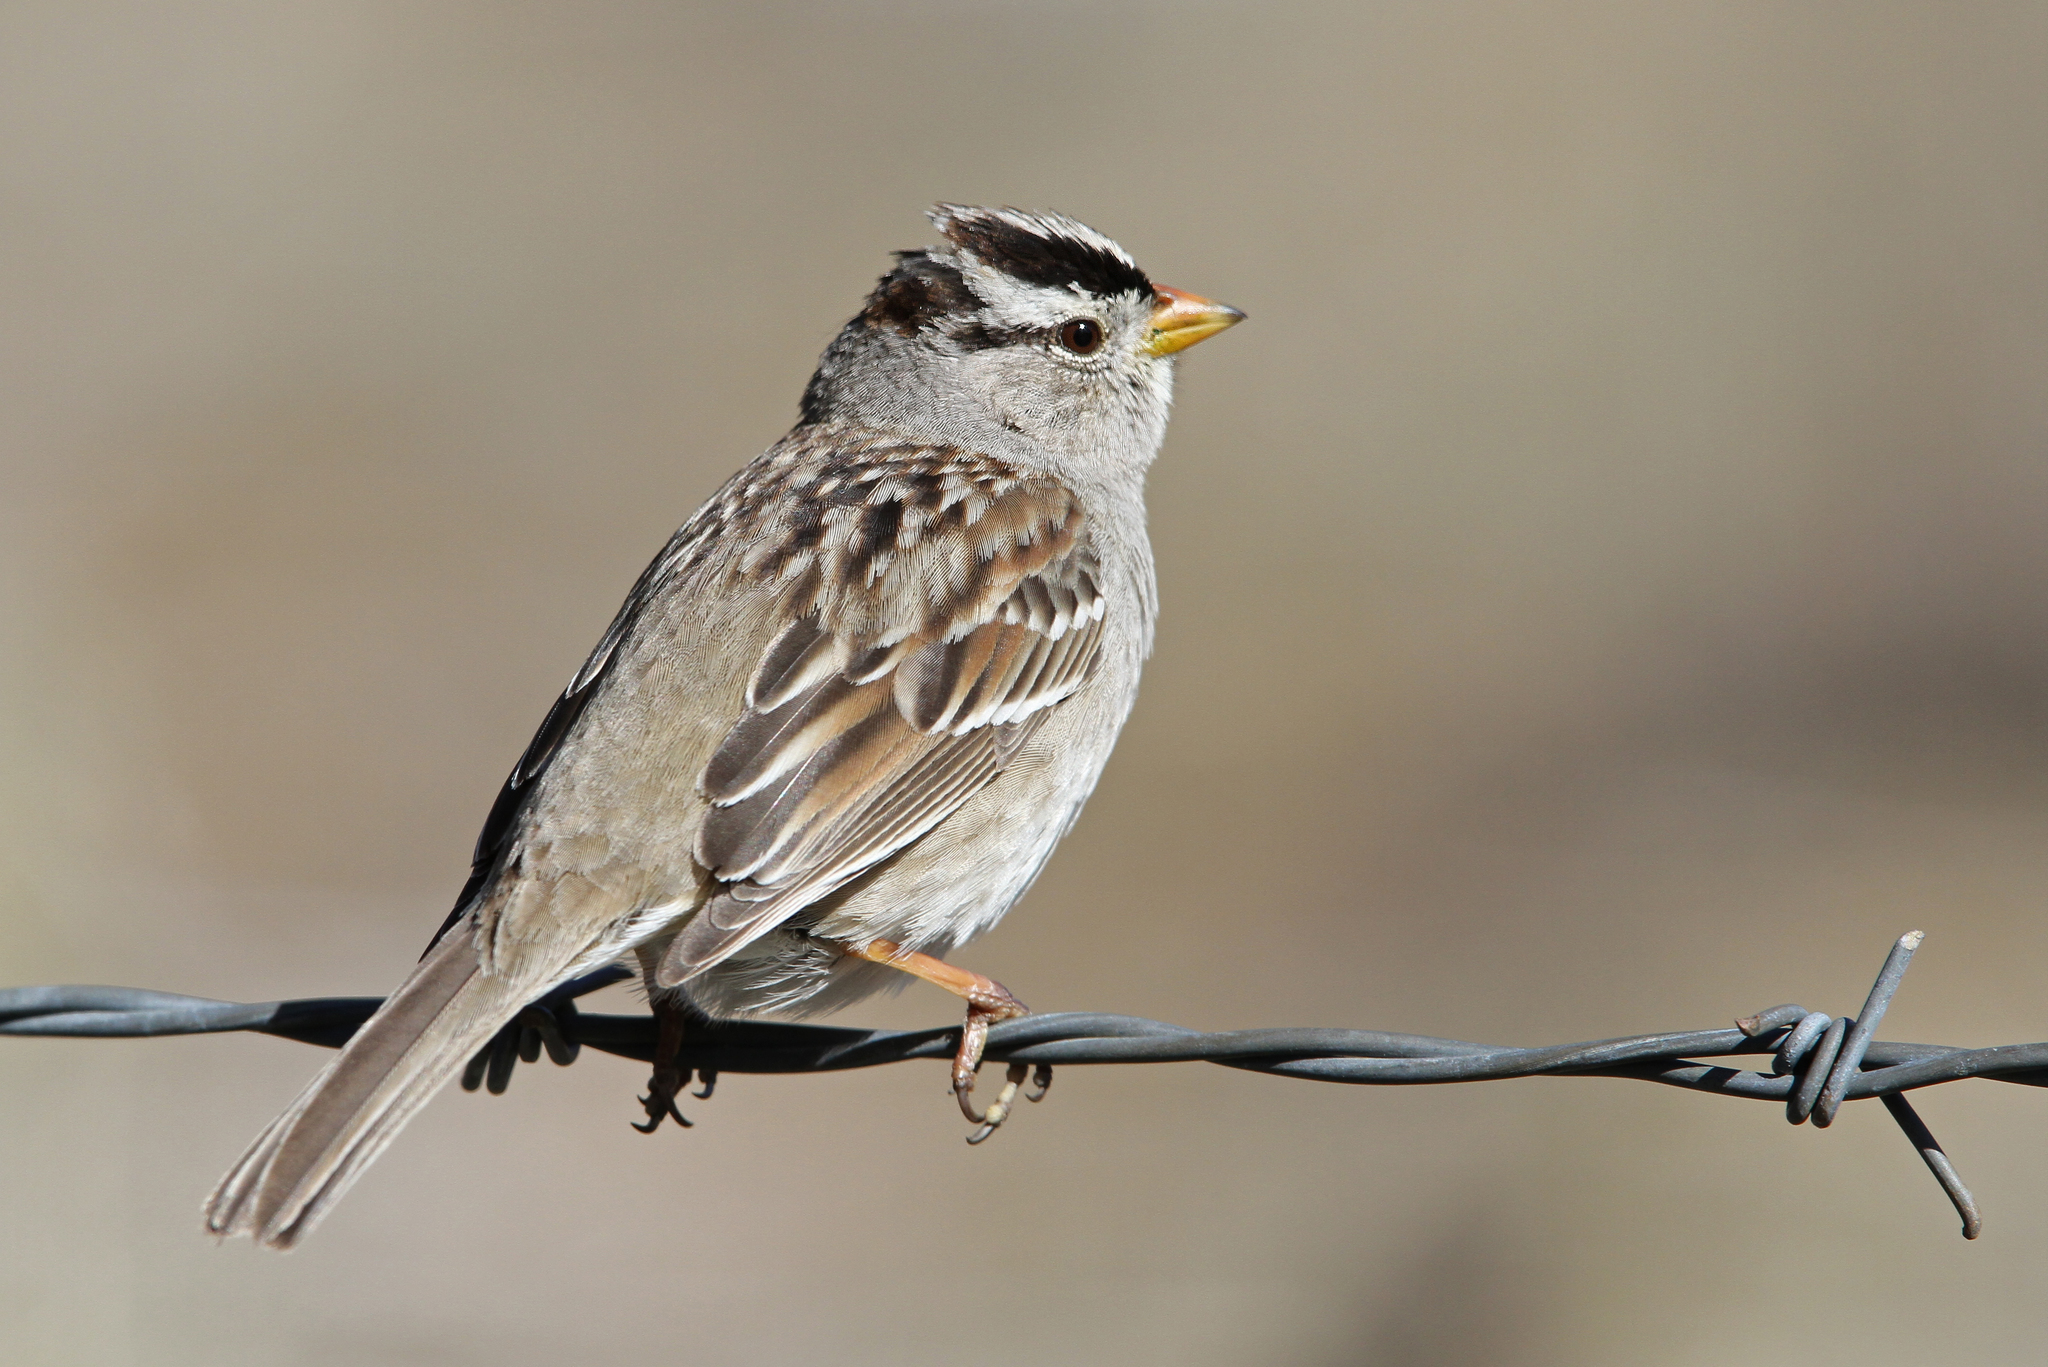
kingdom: Animalia
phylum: Chordata
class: Aves
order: Passeriformes
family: Passerellidae
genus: Zonotrichia
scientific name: Zonotrichia leucophrys
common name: White-crowned sparrow
